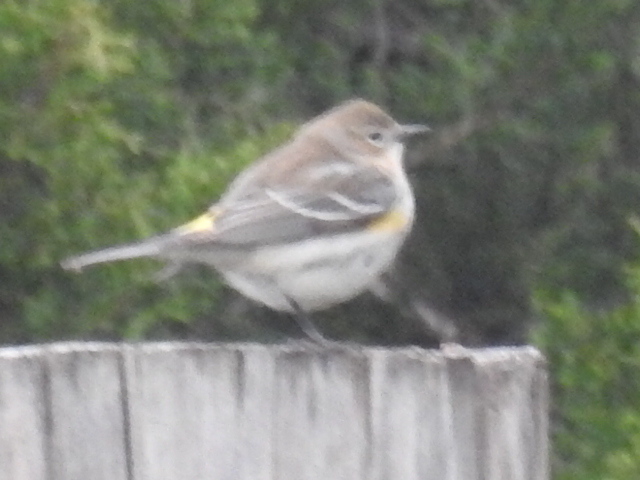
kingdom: Animalia
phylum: Chordata
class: Aves
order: Passeriformes
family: Parulidae
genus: Setophaga
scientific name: Setophaga coronata
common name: Myrtle warbler
